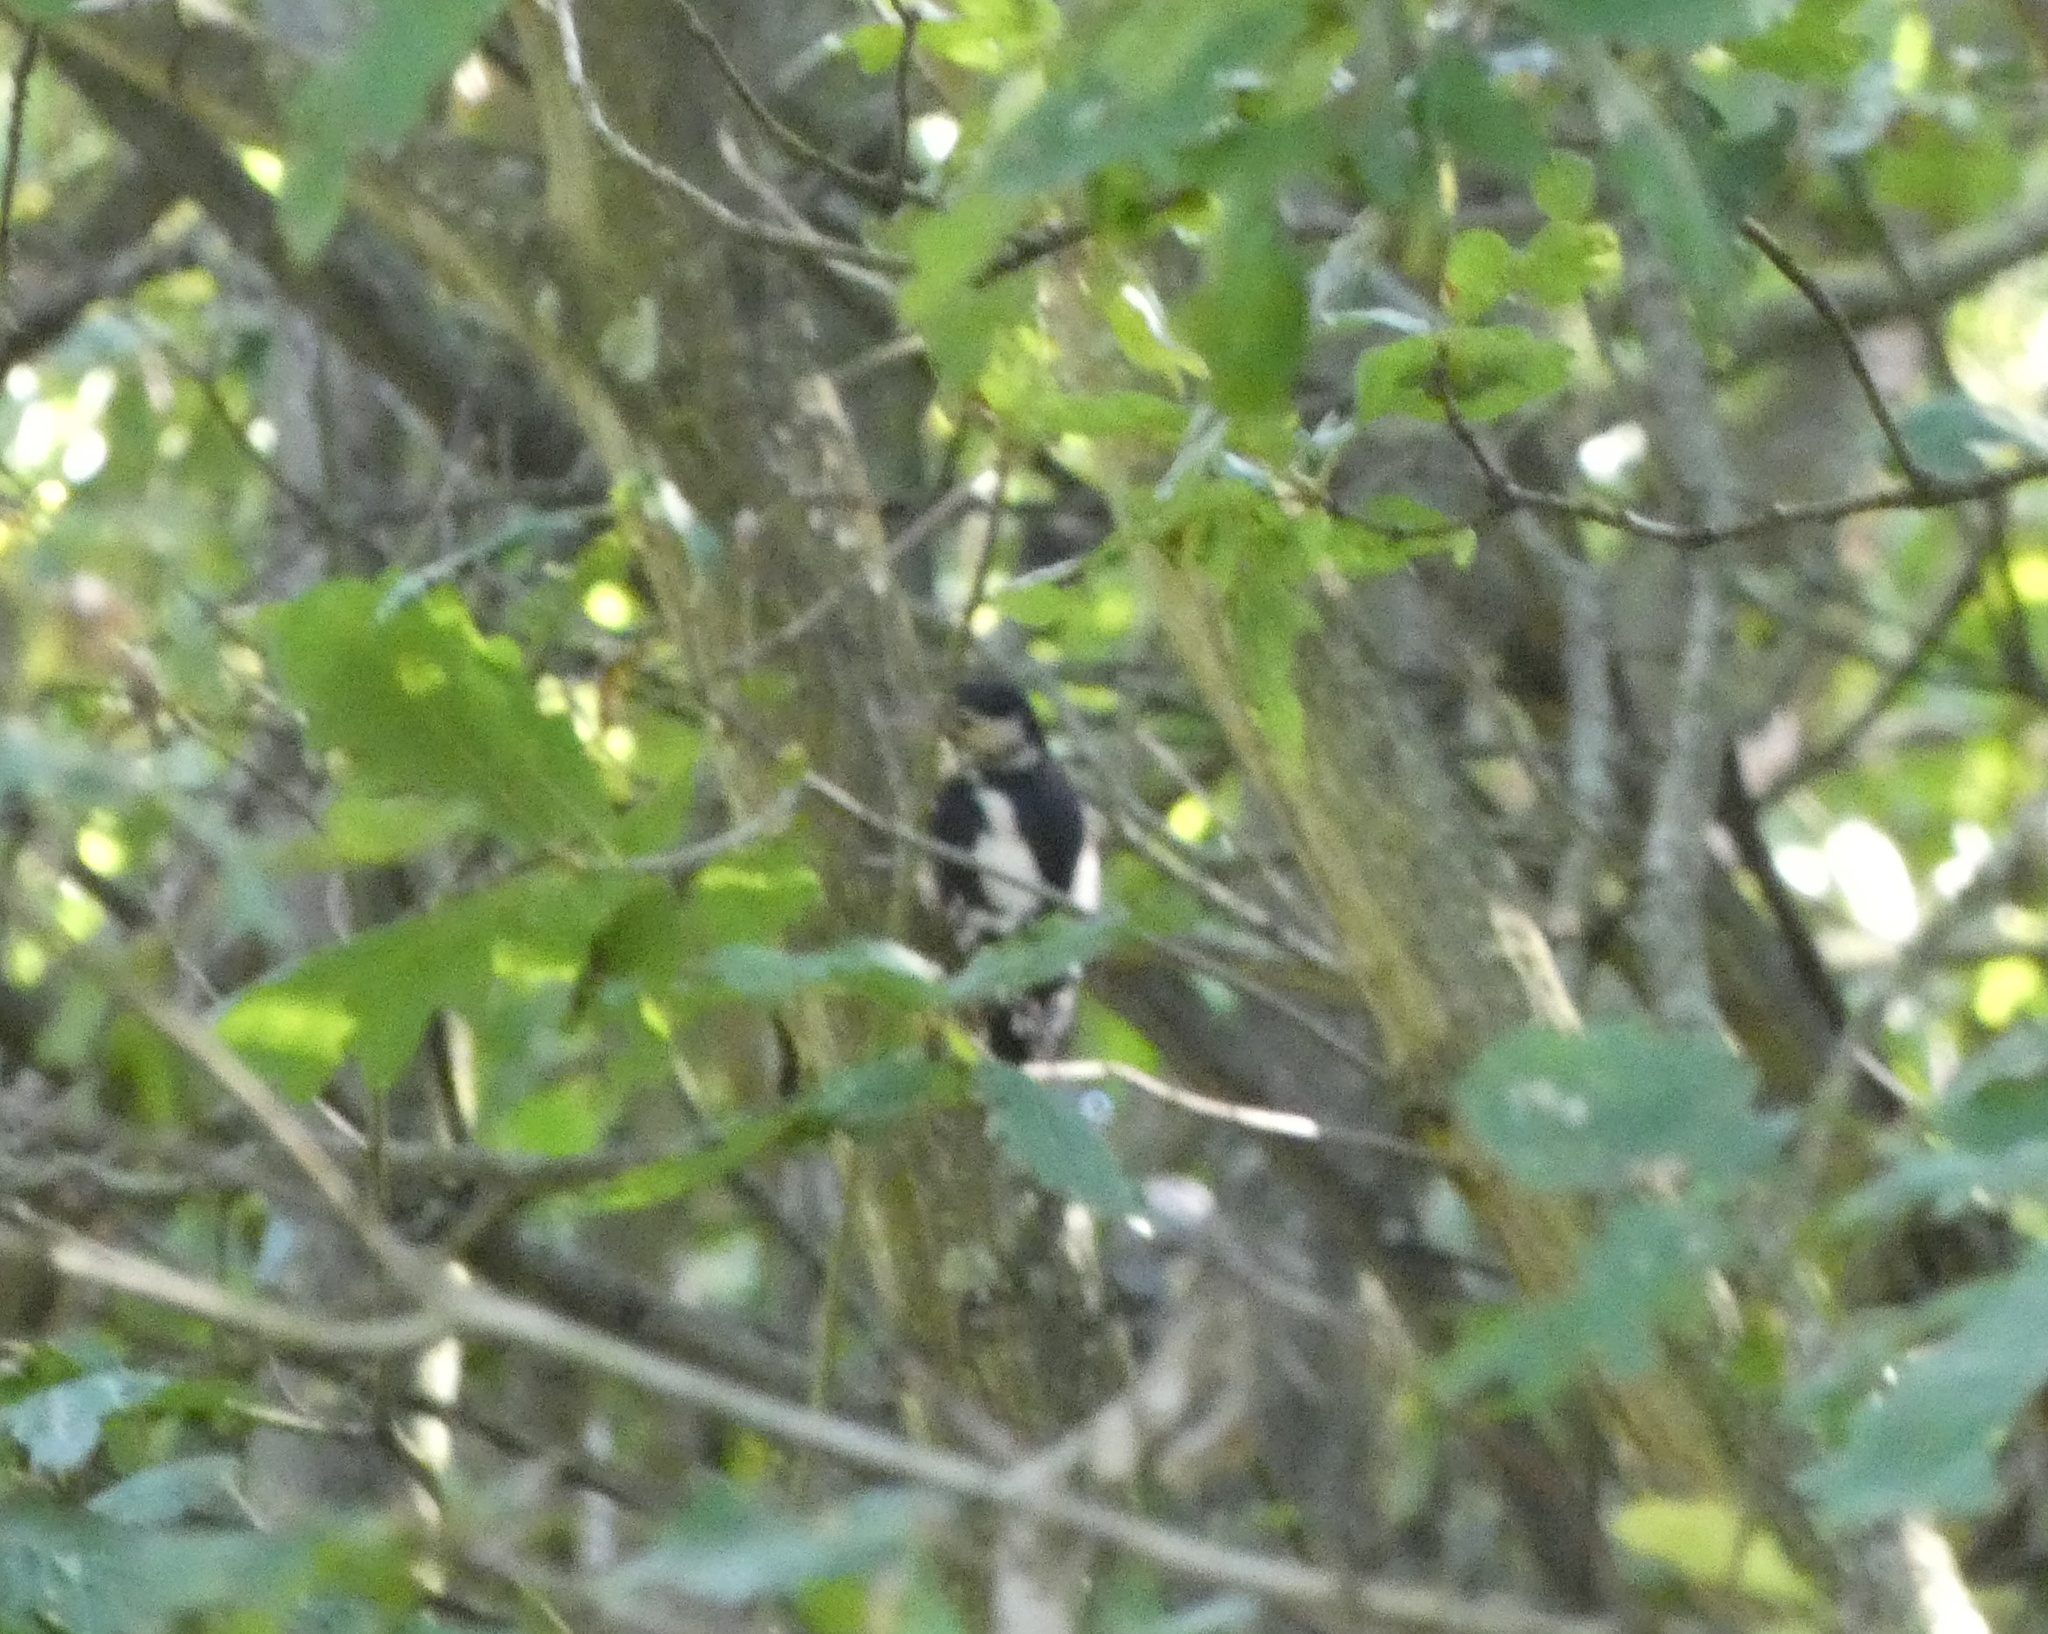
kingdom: Animalia
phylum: Chordata
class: Aves
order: Piciformes
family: Picidae
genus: Dendrocopos
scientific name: Dendrocopos major
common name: Great spotted woodpecker
